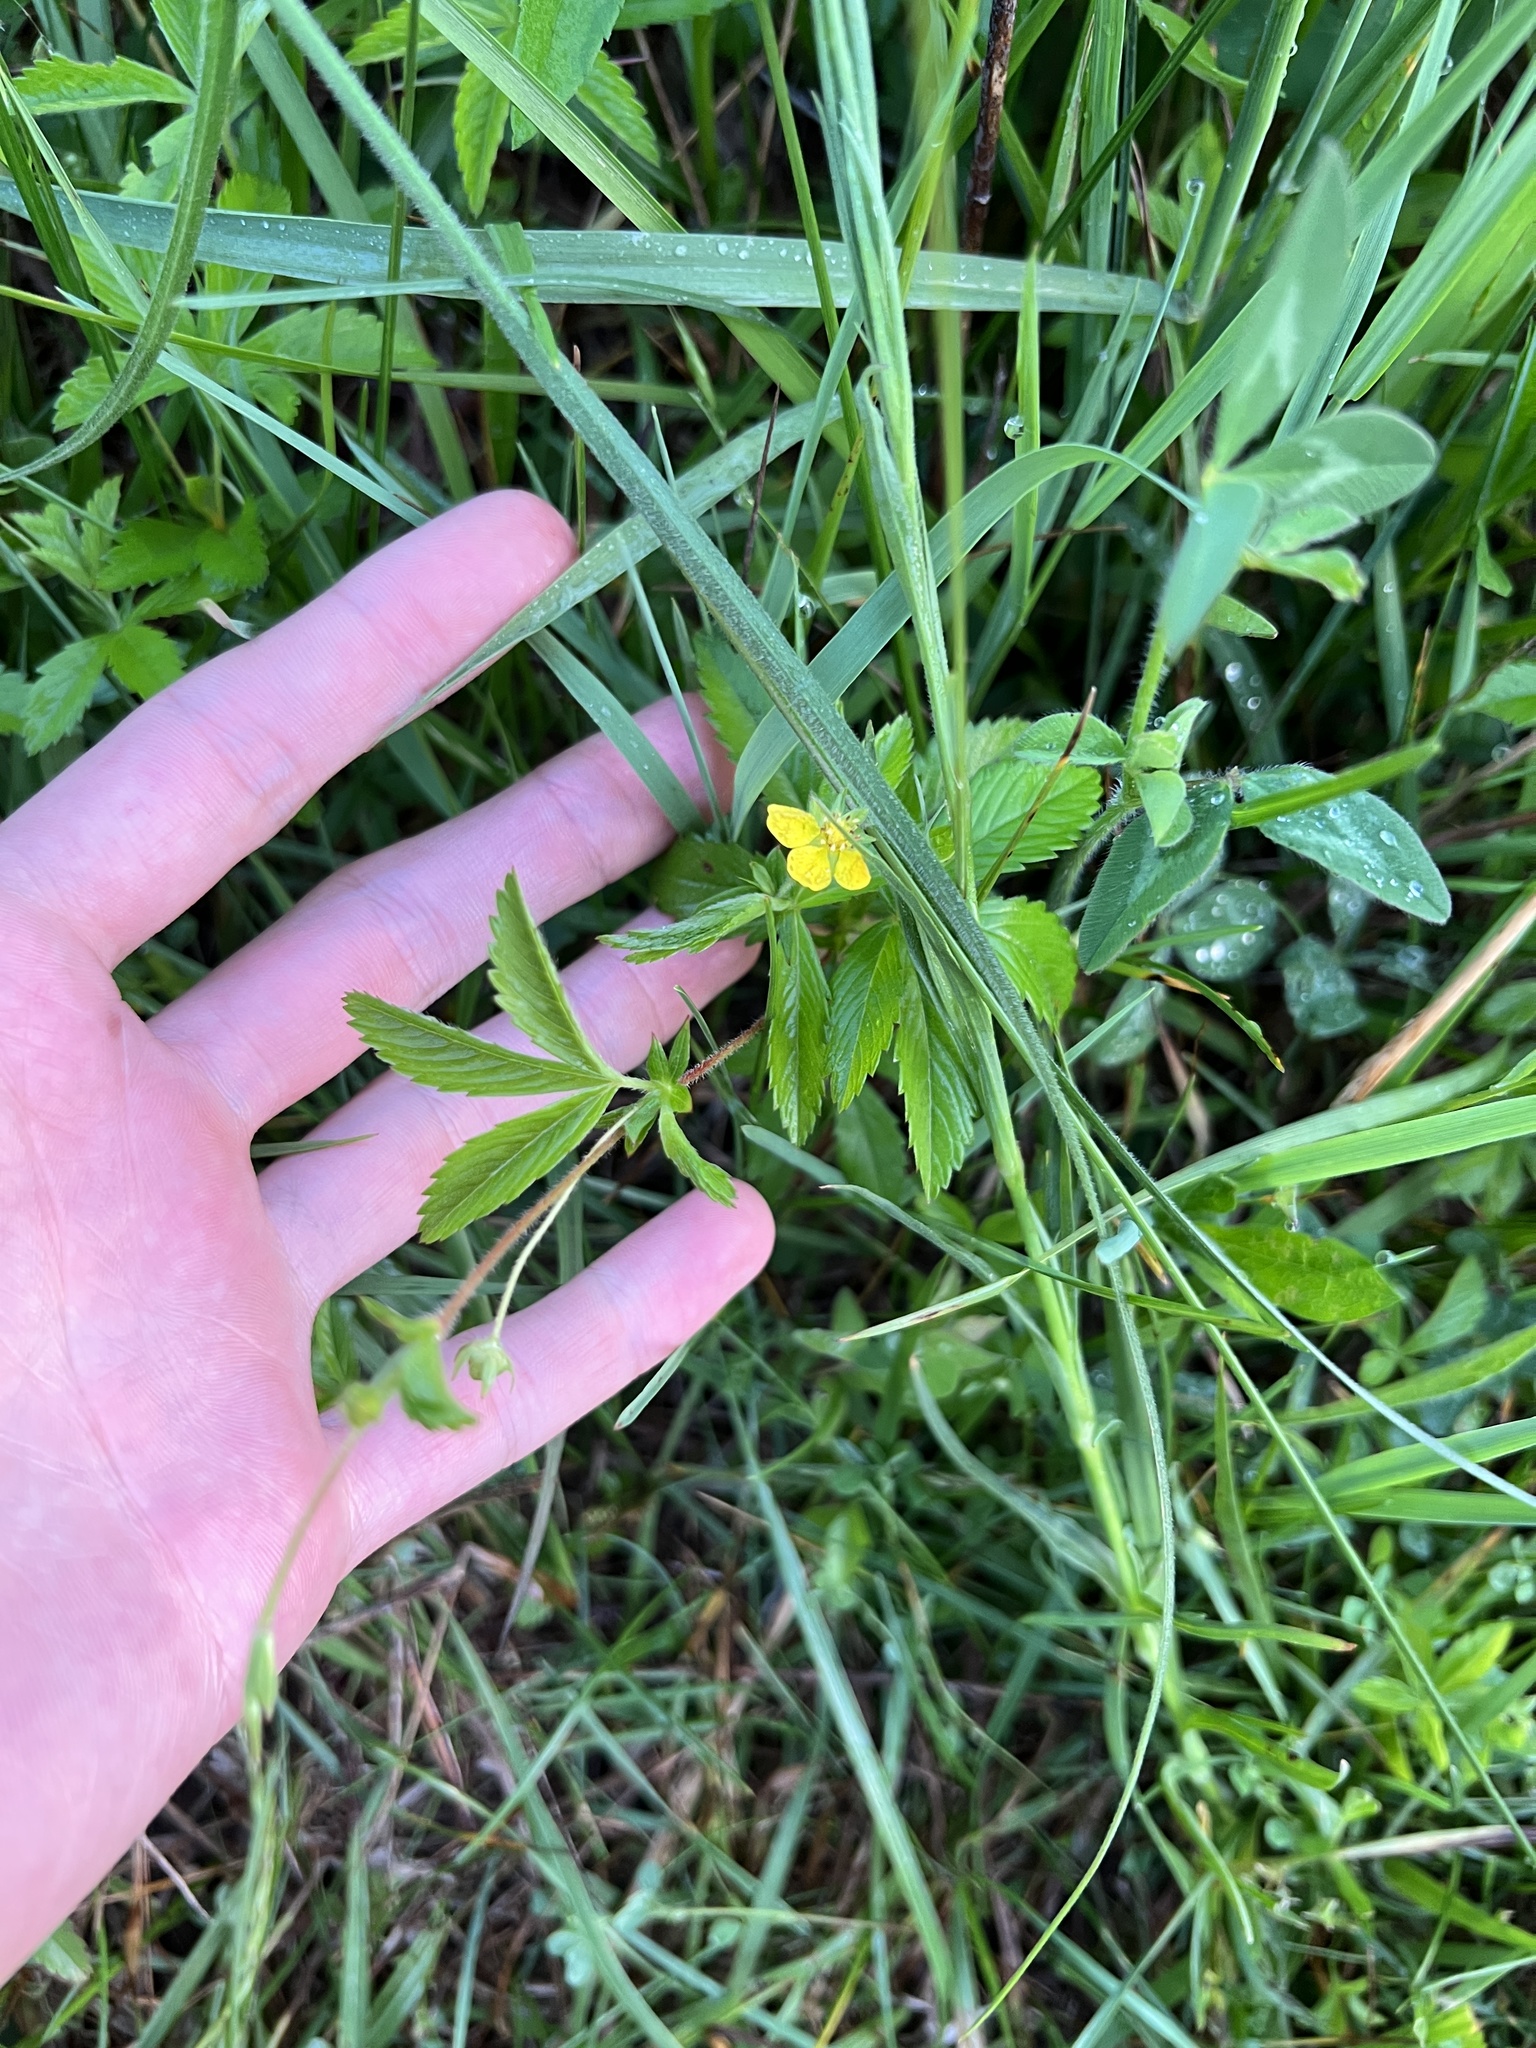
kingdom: Plantae
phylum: Tracheophyta
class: Magnoliopsida
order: Rosales
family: Rosaceae
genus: Potentilla
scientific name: Potentilla simplex
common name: Old field cinquefoil
